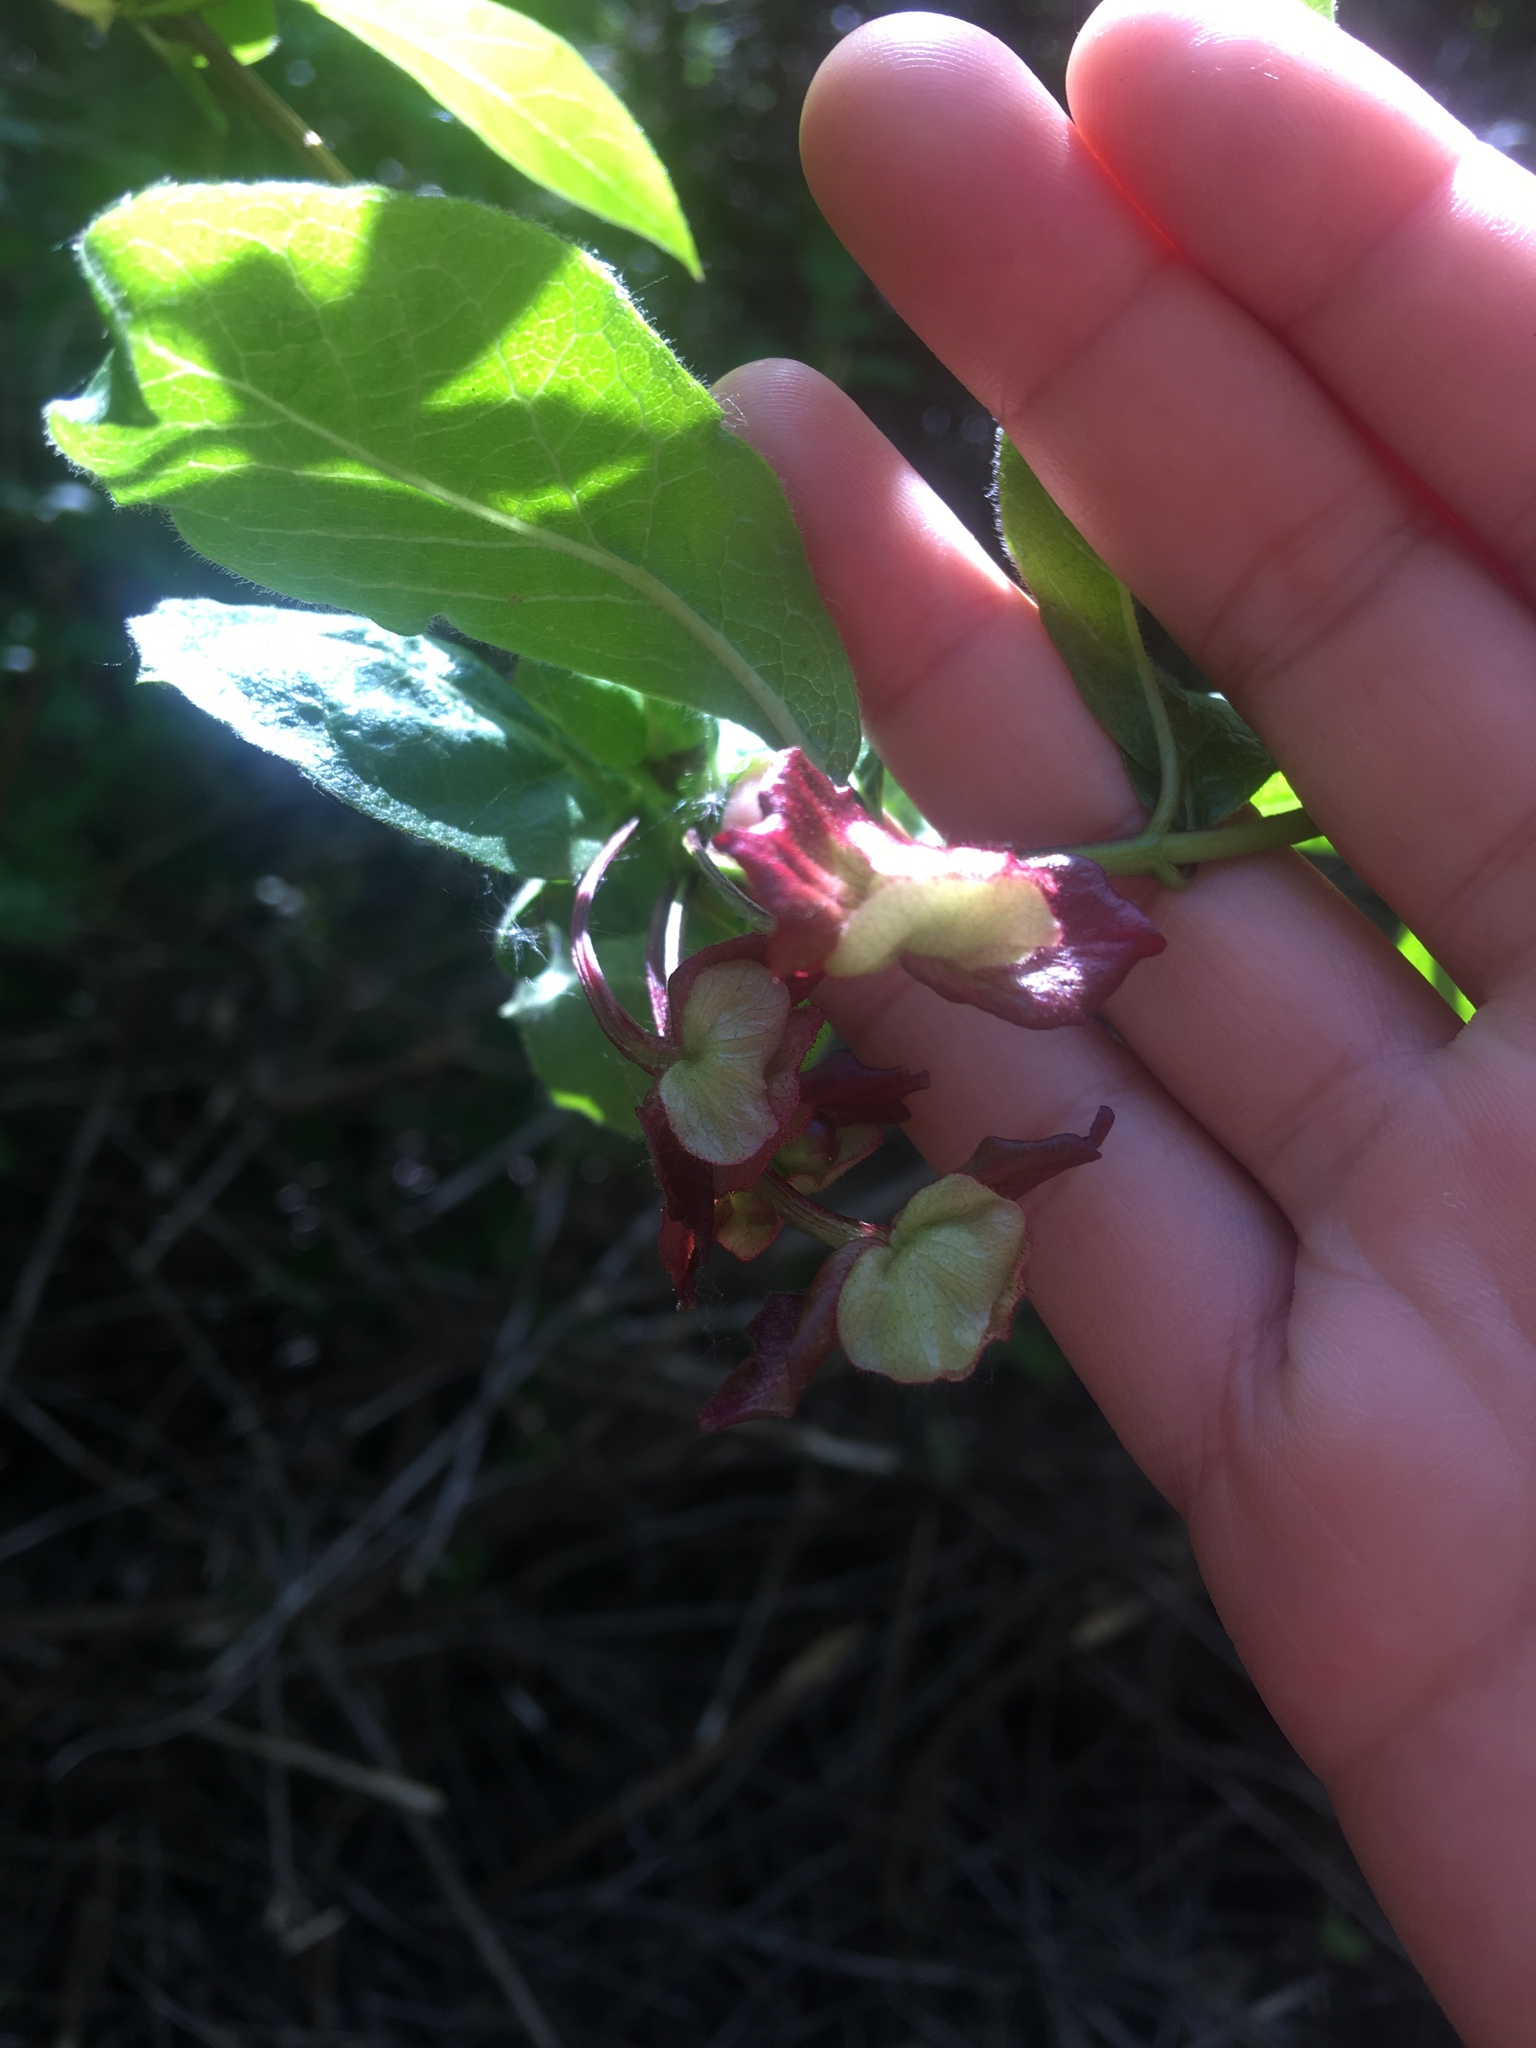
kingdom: Plantae
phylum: Tracheophyta
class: Magnoliopsida
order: Dipsacales
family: Caprifoliaceae
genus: Lonicera
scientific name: Lonicera involucrata
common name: Californian honeysuckle
